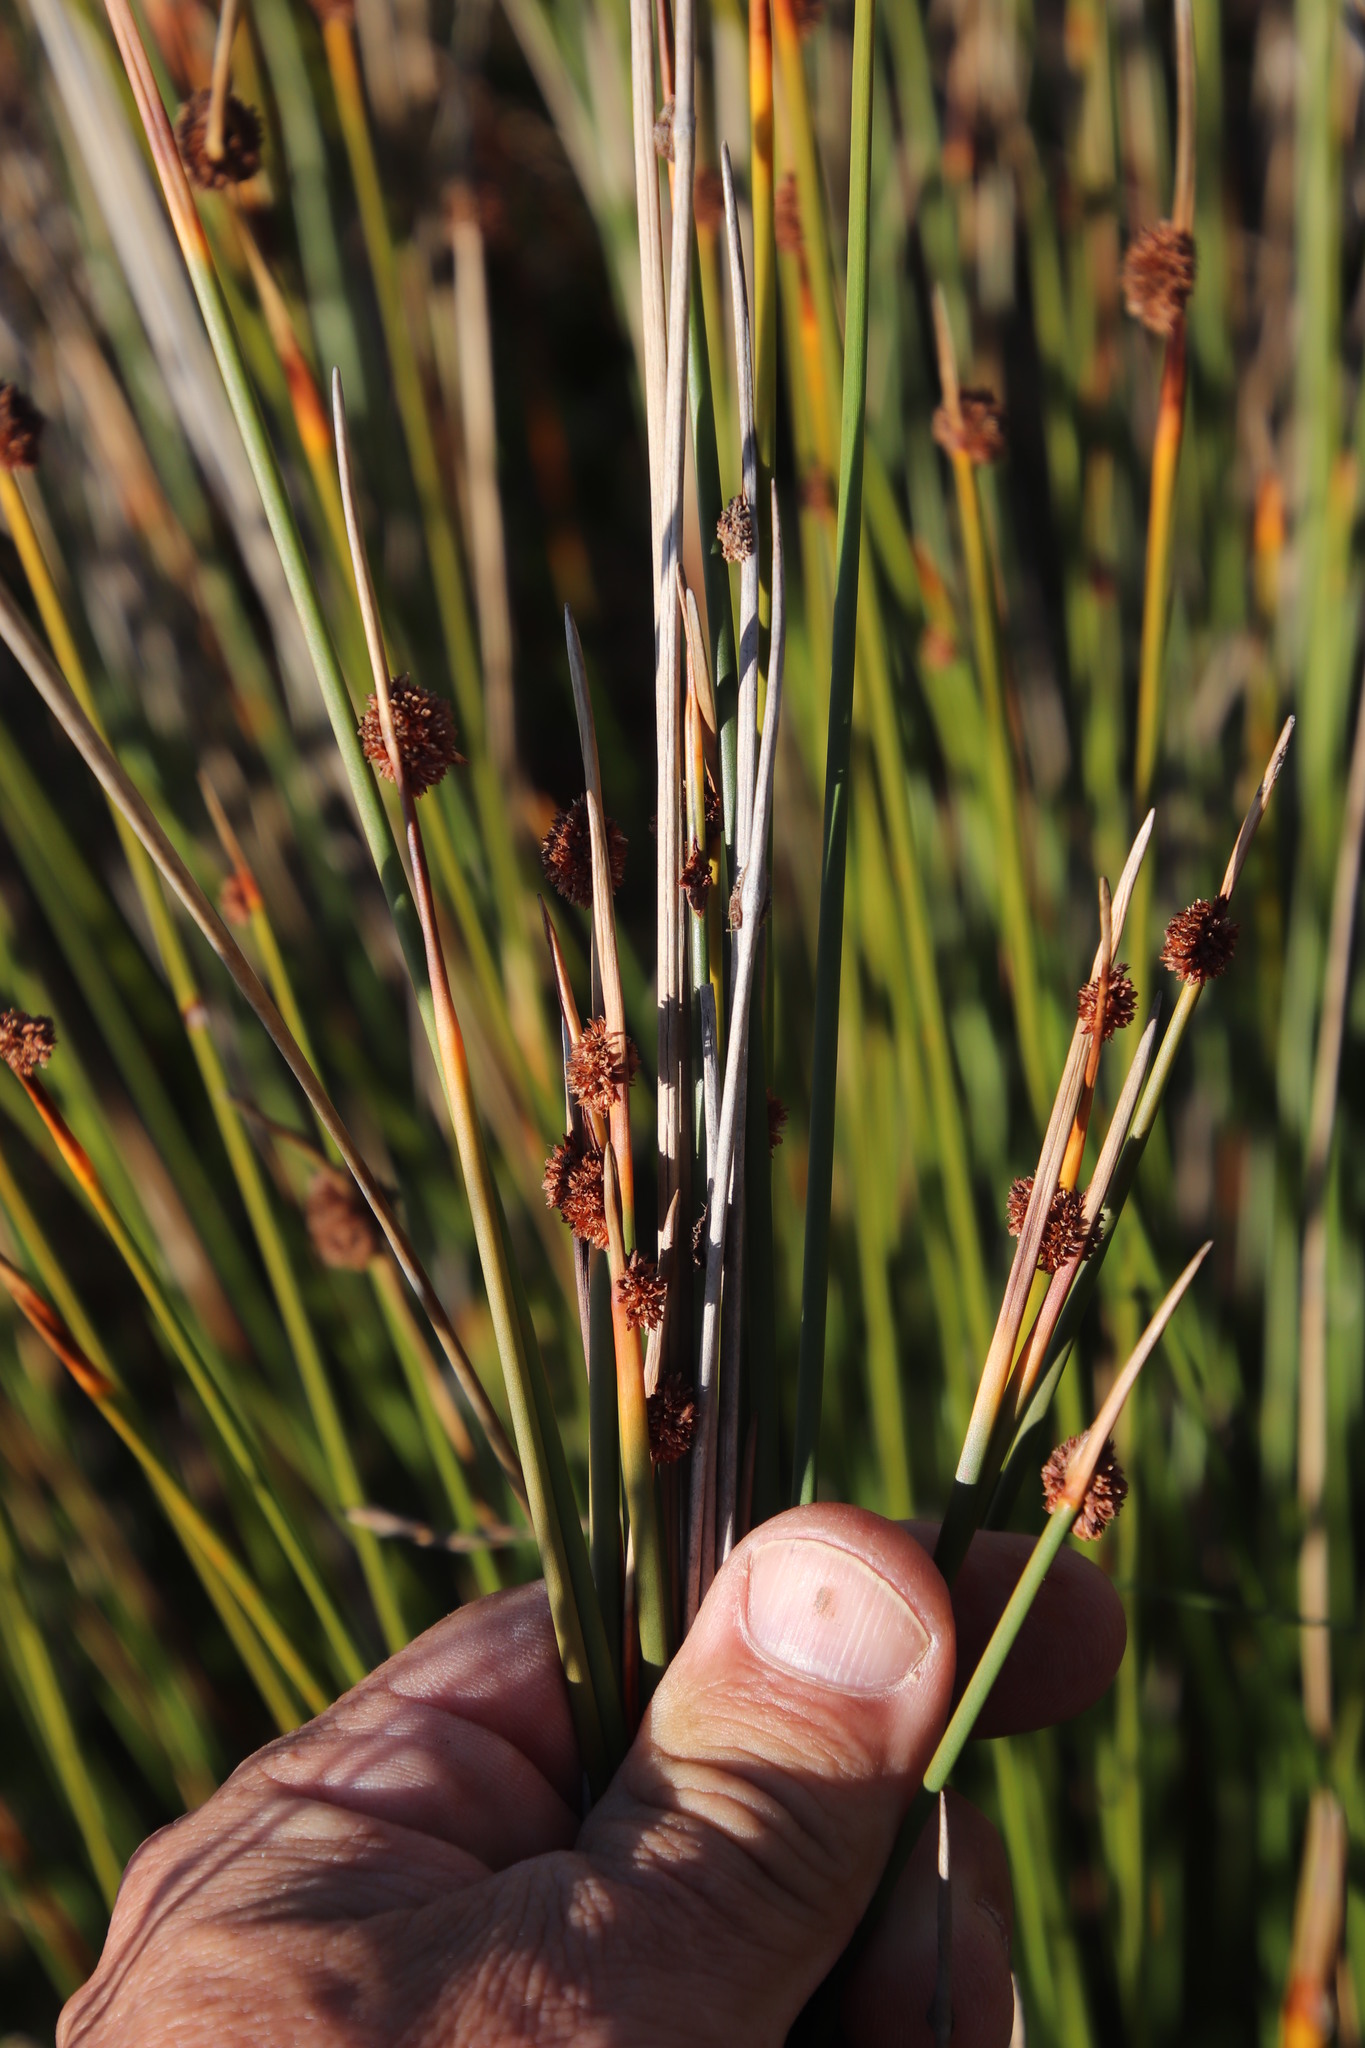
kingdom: Plantae
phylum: Tracheophyta
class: Liliopsida
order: Poales
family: Cyperaceae
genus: Ficinia
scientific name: Ficinia nodosa
